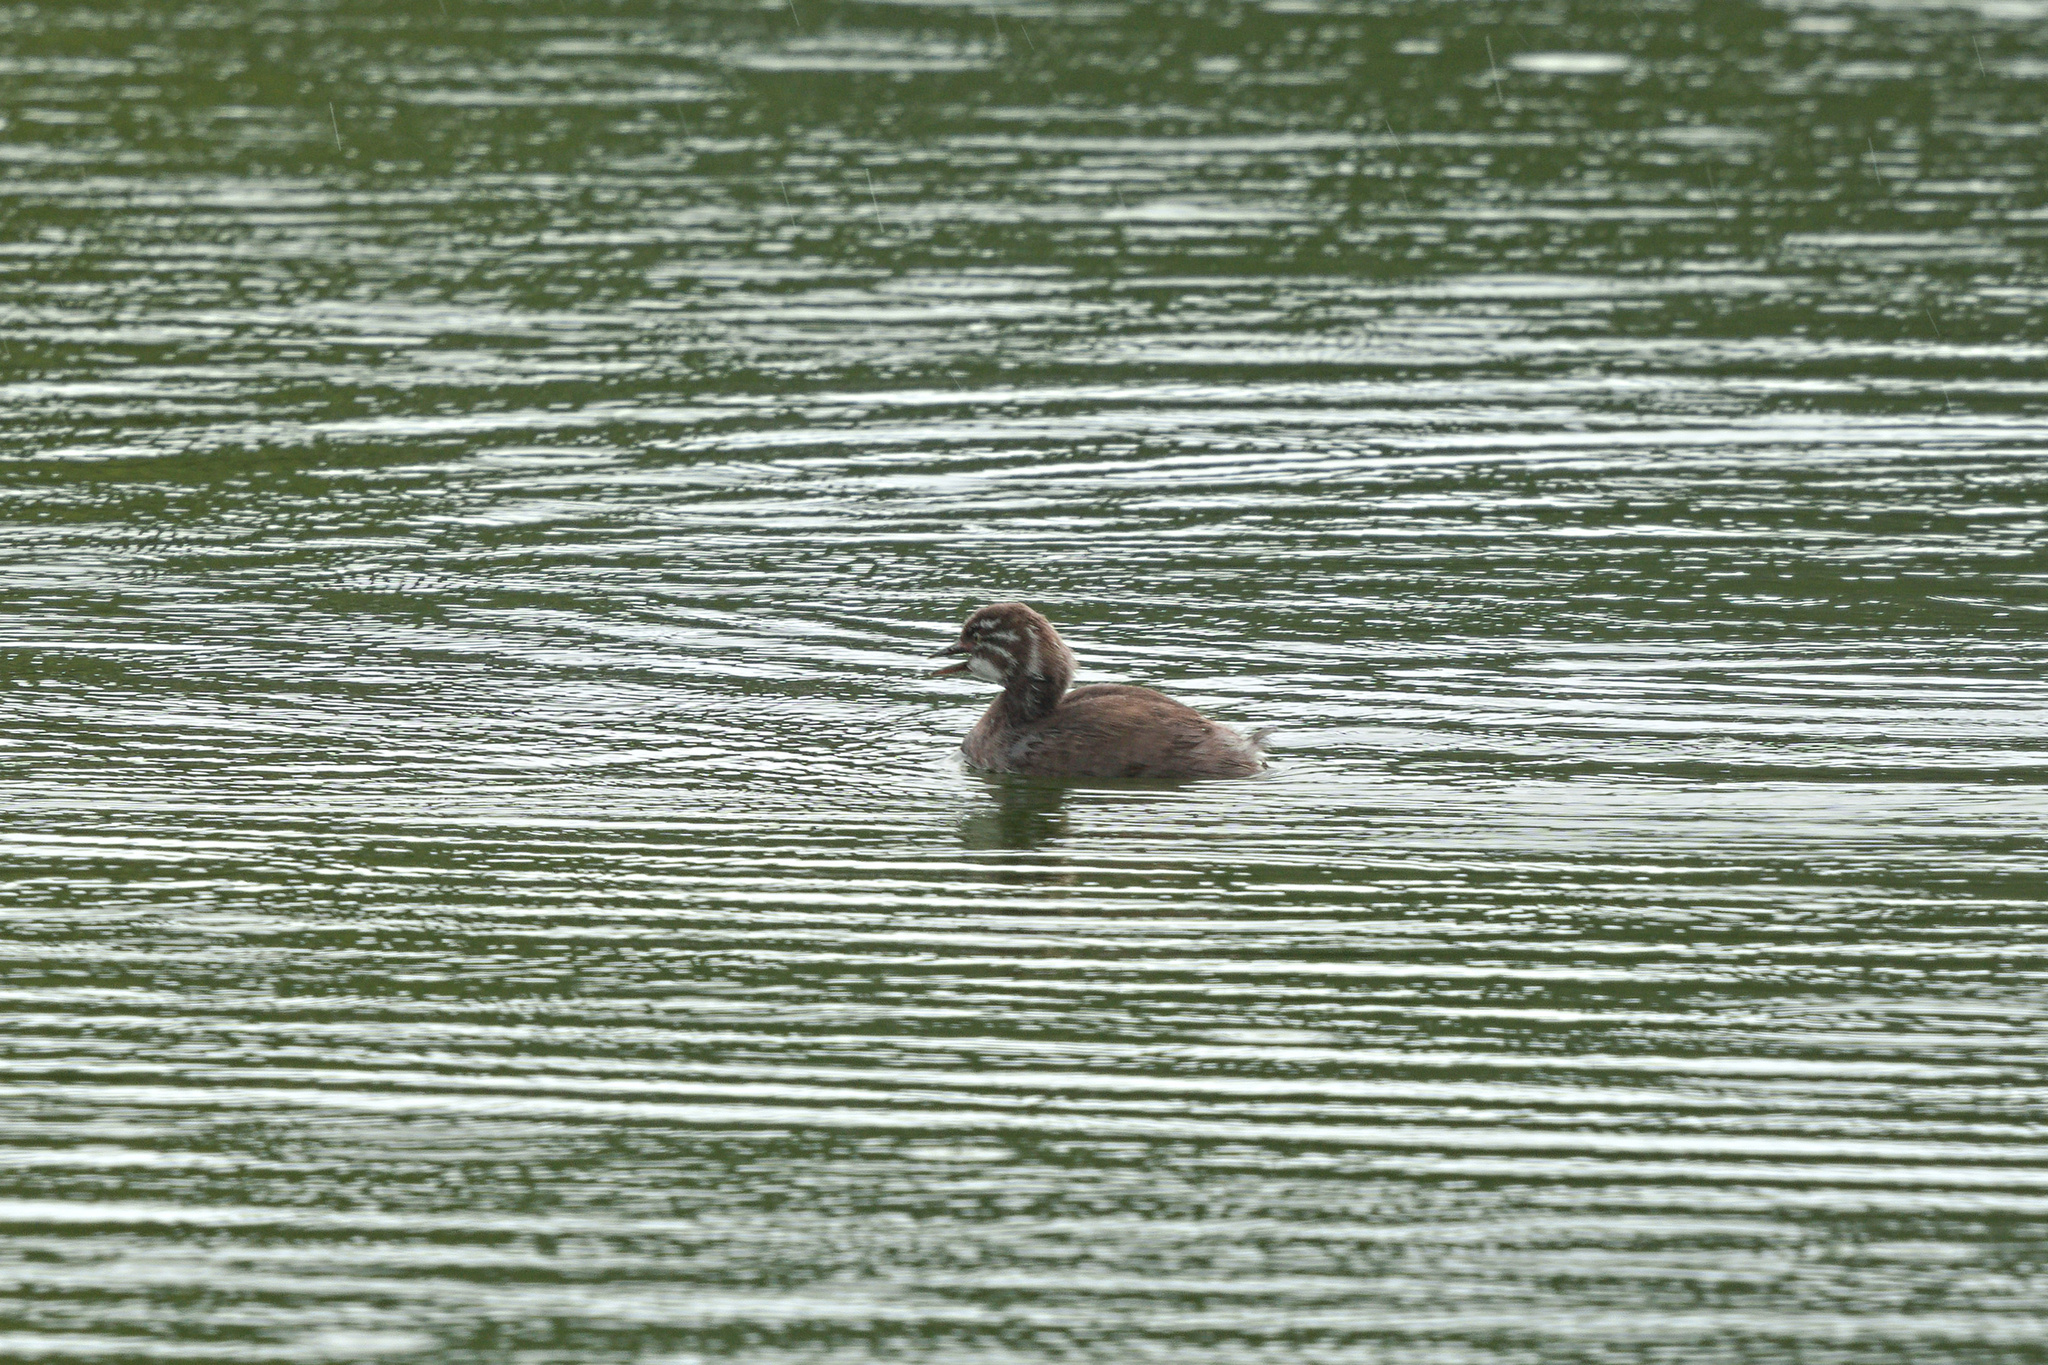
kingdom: Animalia
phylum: Chordata
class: Aves
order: Podicipediformes
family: Podicipedidae
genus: Tachybaptus
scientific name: Tachybaptus dominicus
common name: Least grebe
